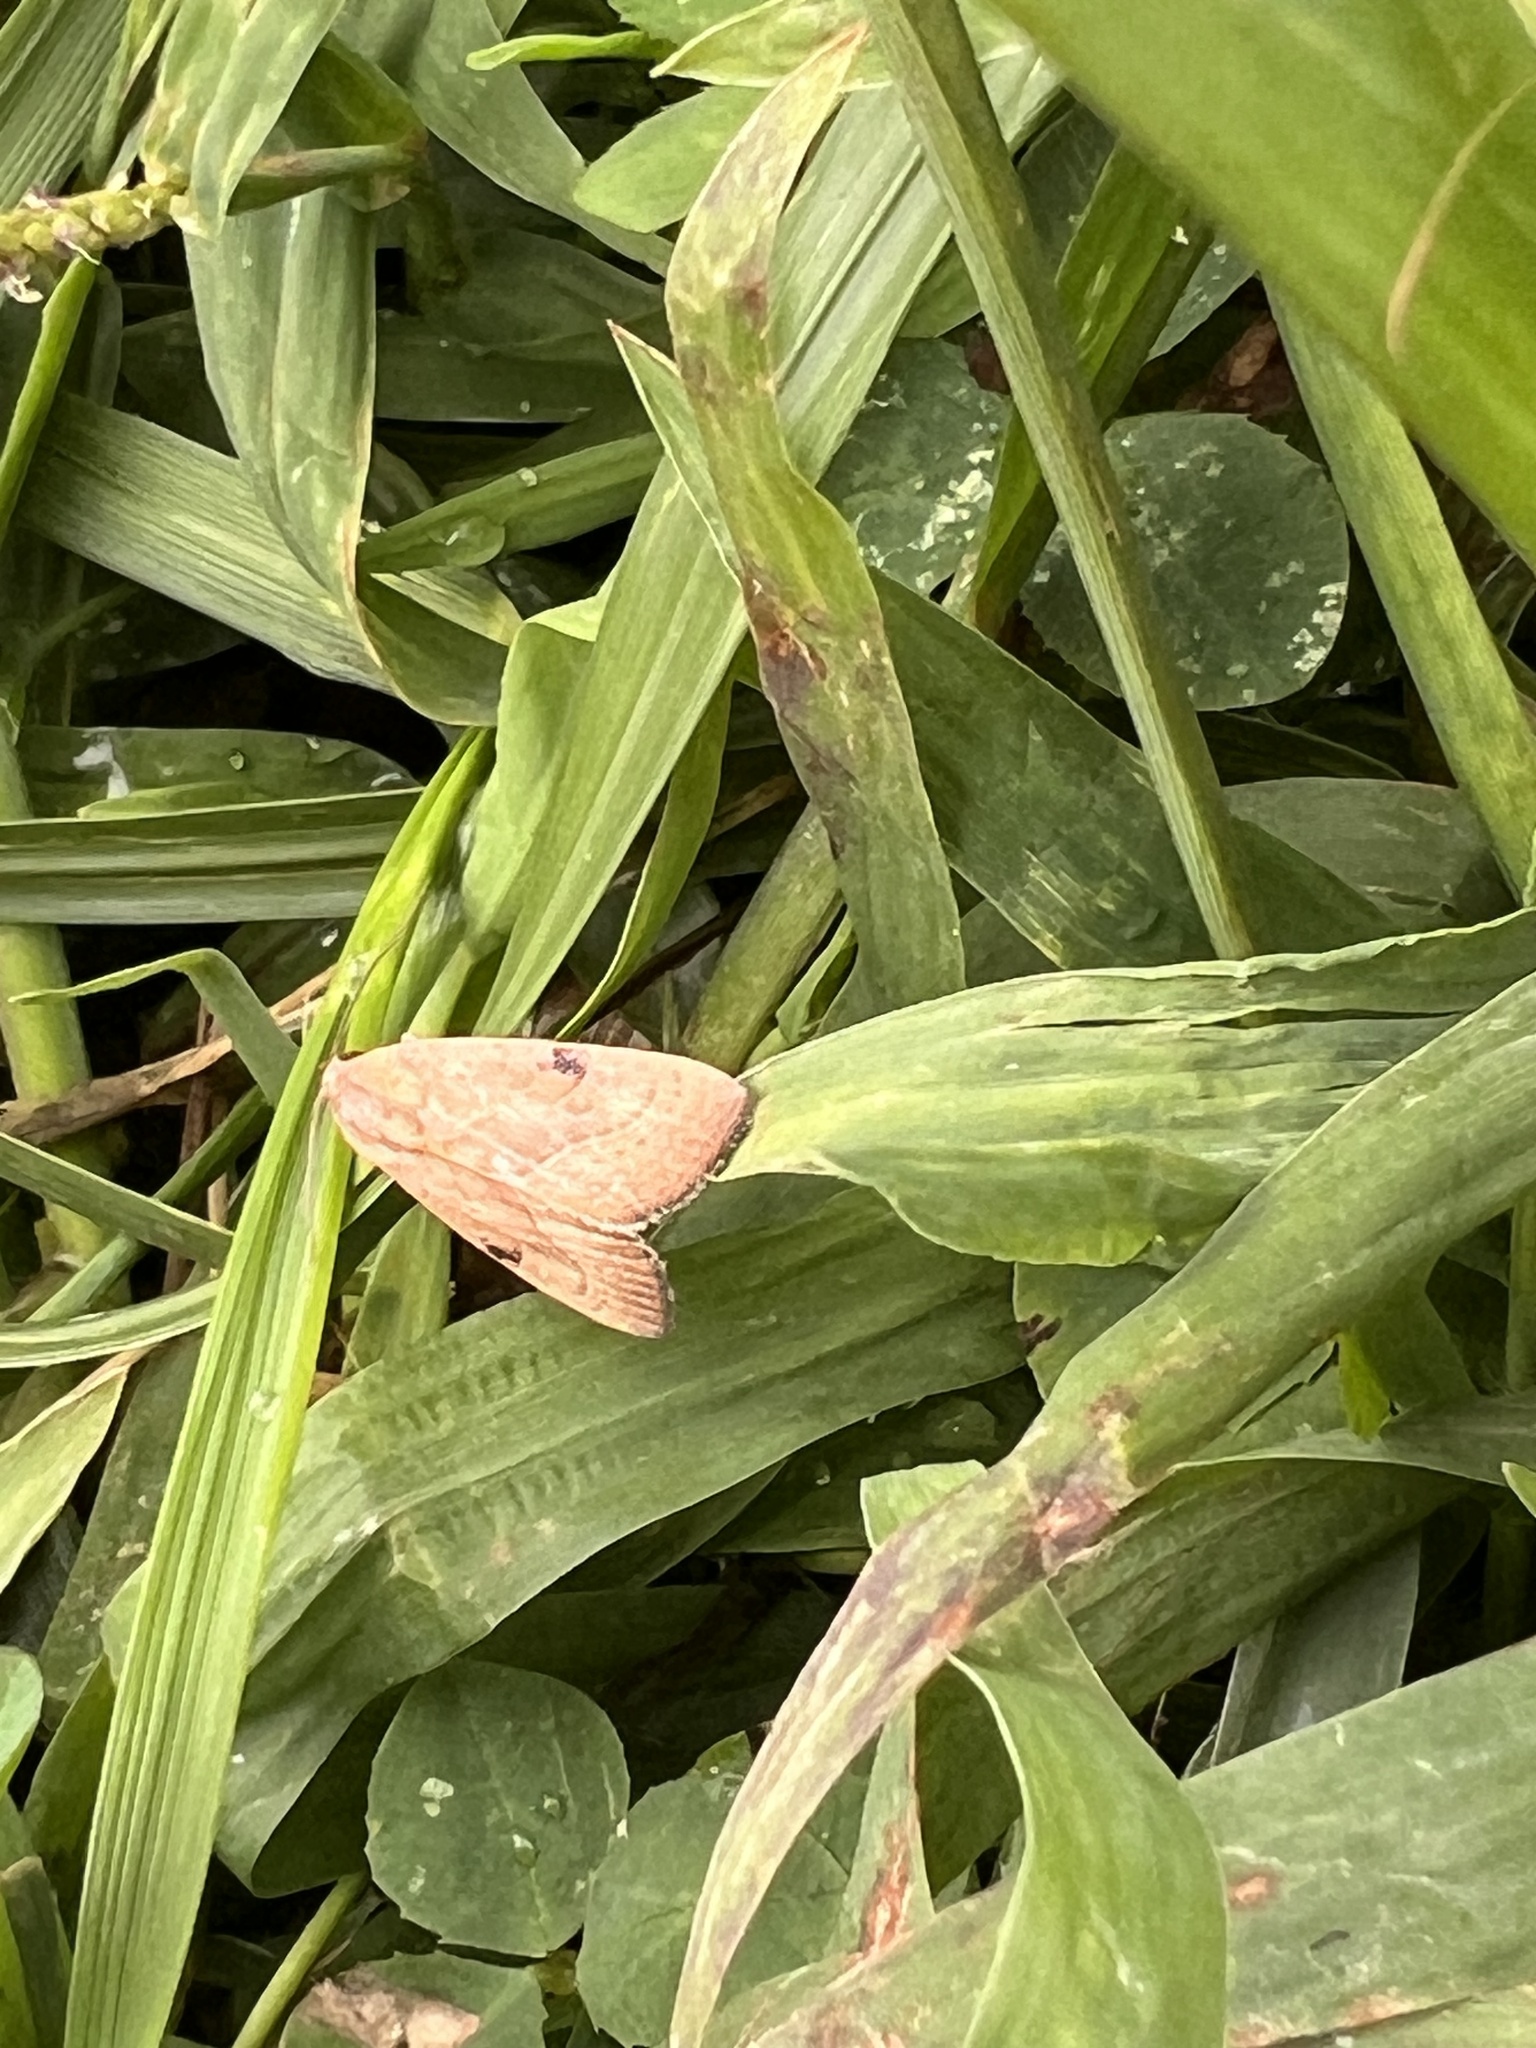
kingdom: Animalia
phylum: Arthropoda
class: Insecta
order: Lepidoptera
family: Noctuidae
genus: Galgula
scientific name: Galgula partita
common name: Wedgeling
